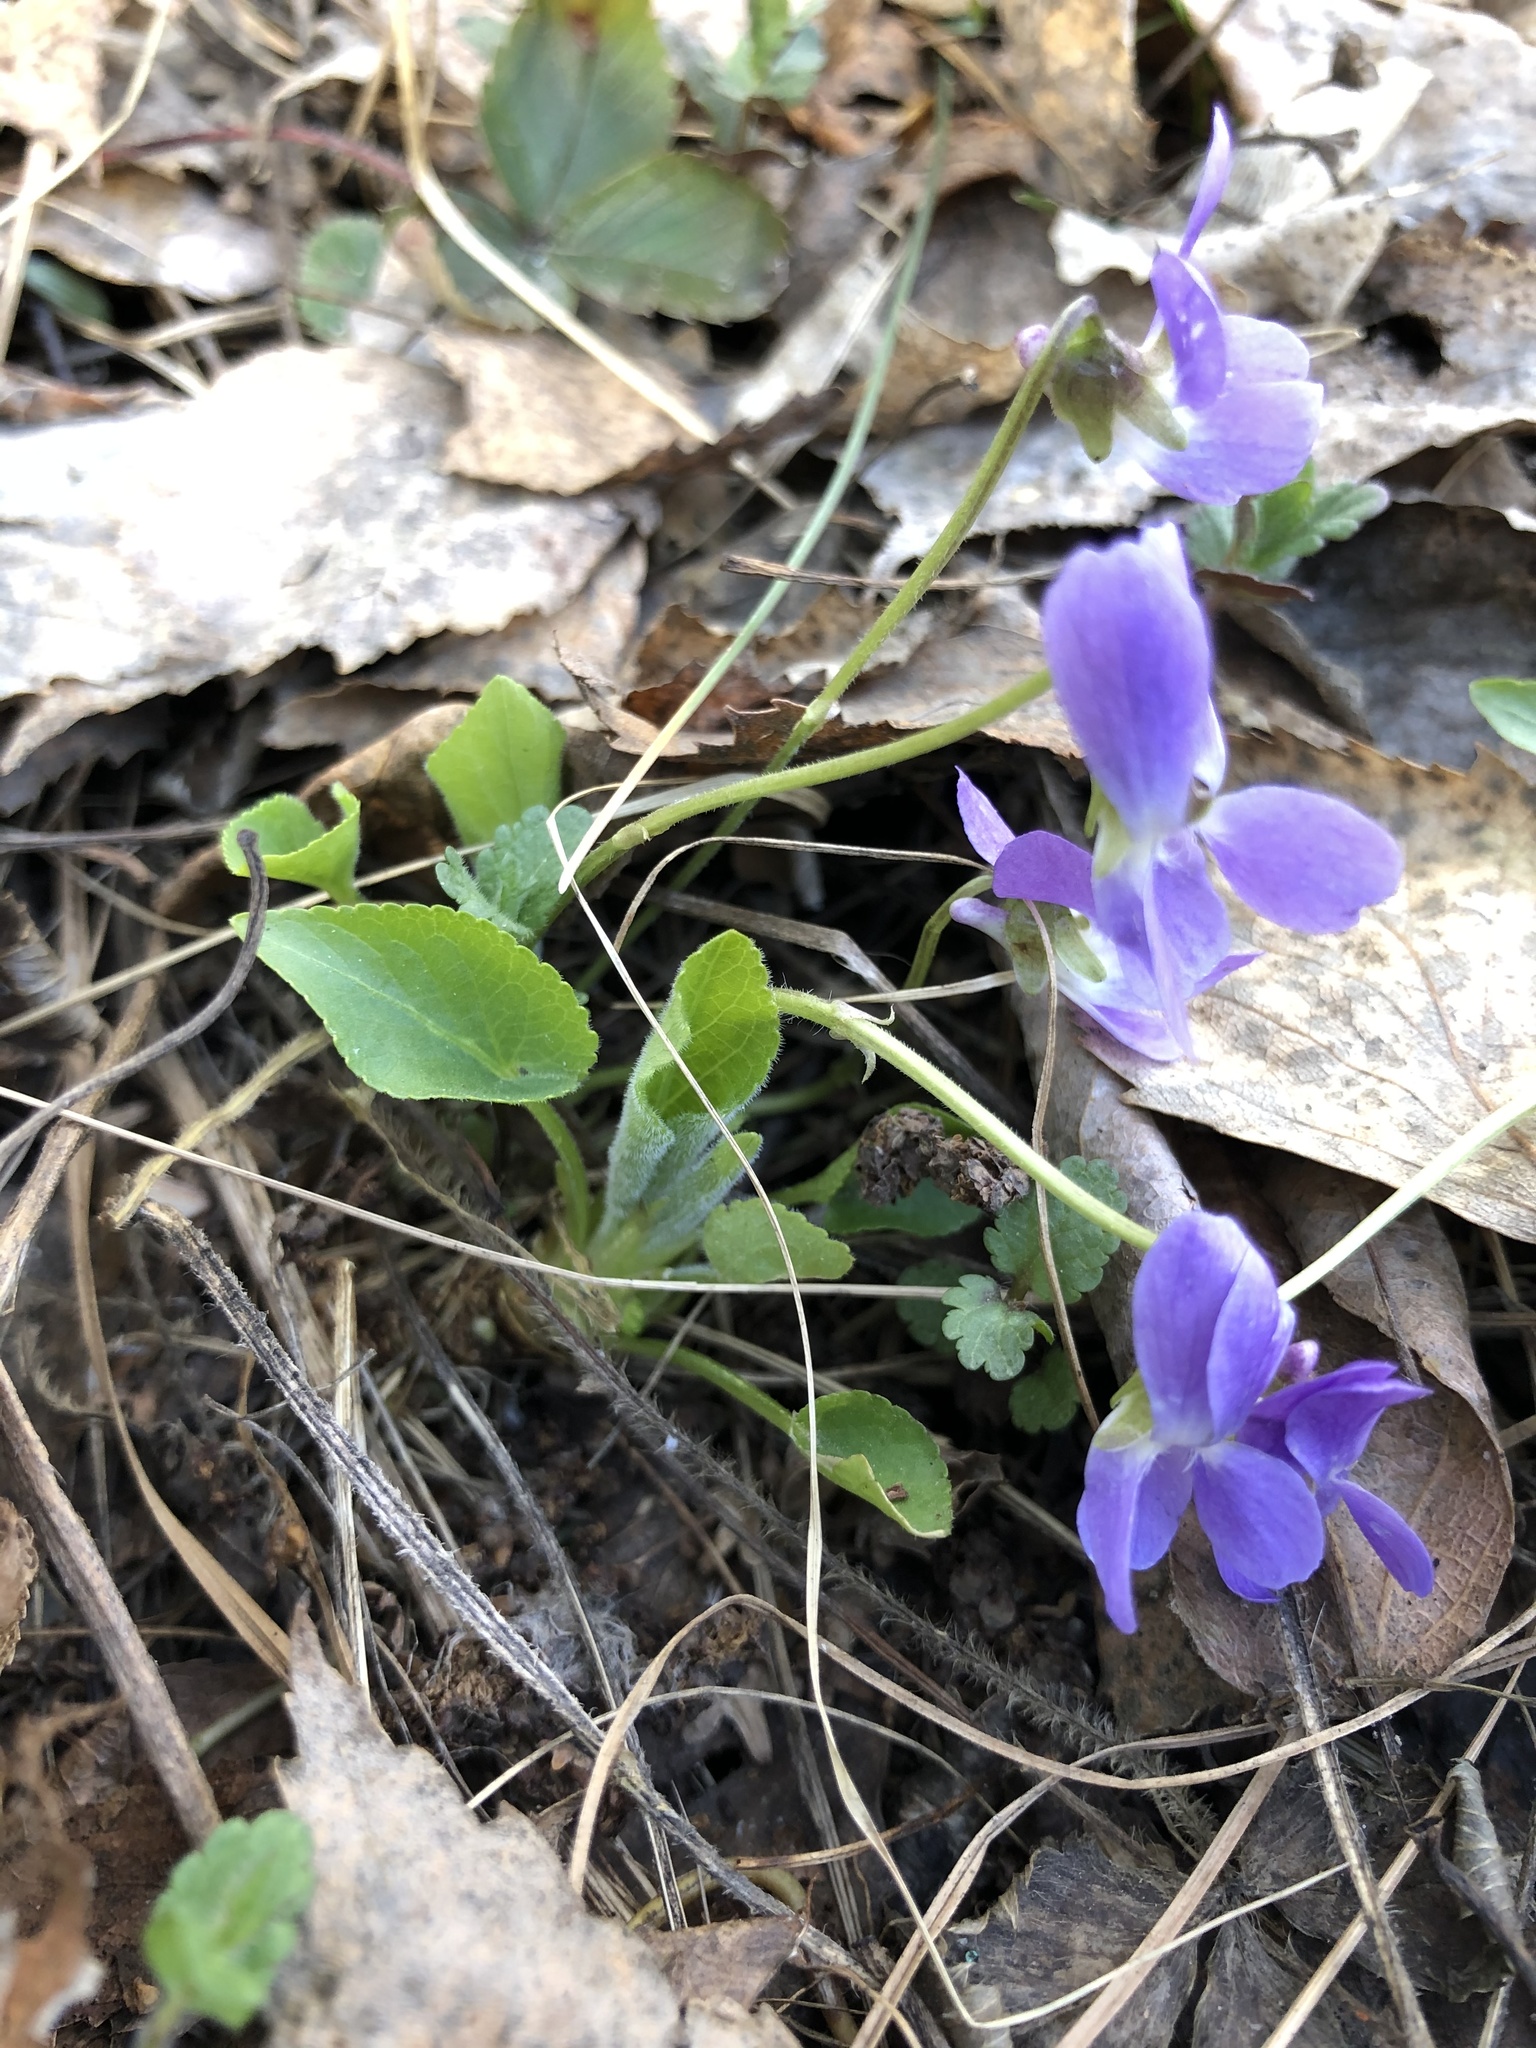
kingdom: Plantae
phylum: Tracheophyta
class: Magnoliopsida
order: Malpighiales
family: Violaceae
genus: Viola
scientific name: Viola hirta
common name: Hairy violet
